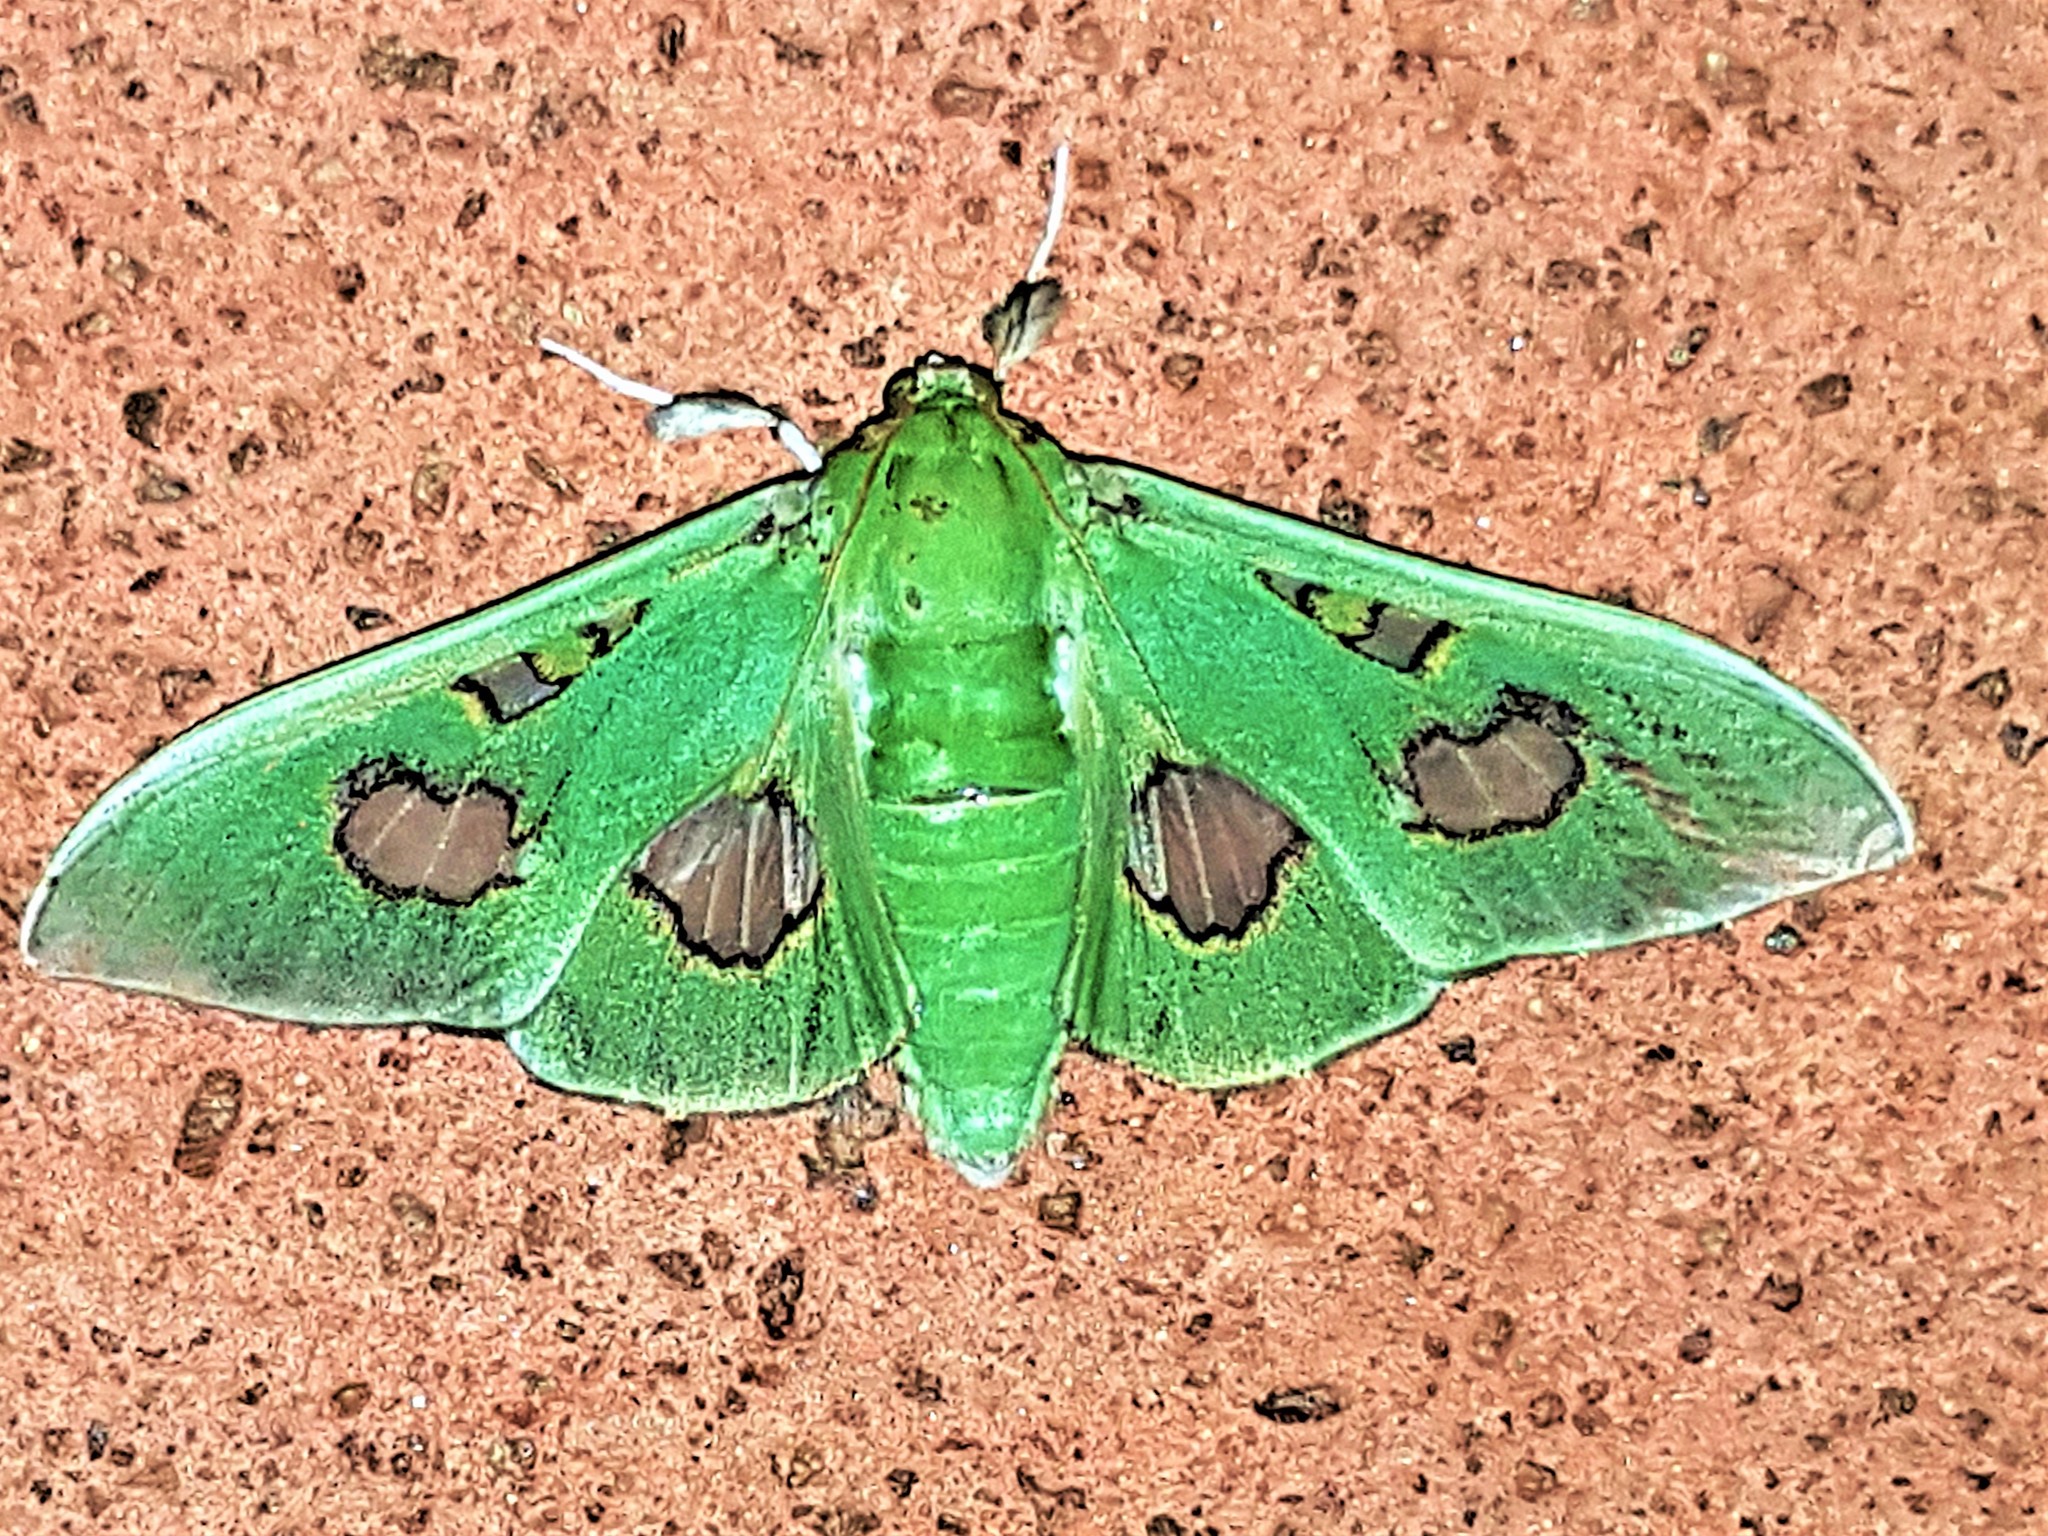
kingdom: Animalia
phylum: Arthropoda
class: Insecta
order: Lepidoptera
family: Crambidae
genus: Siga
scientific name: Siga liris
